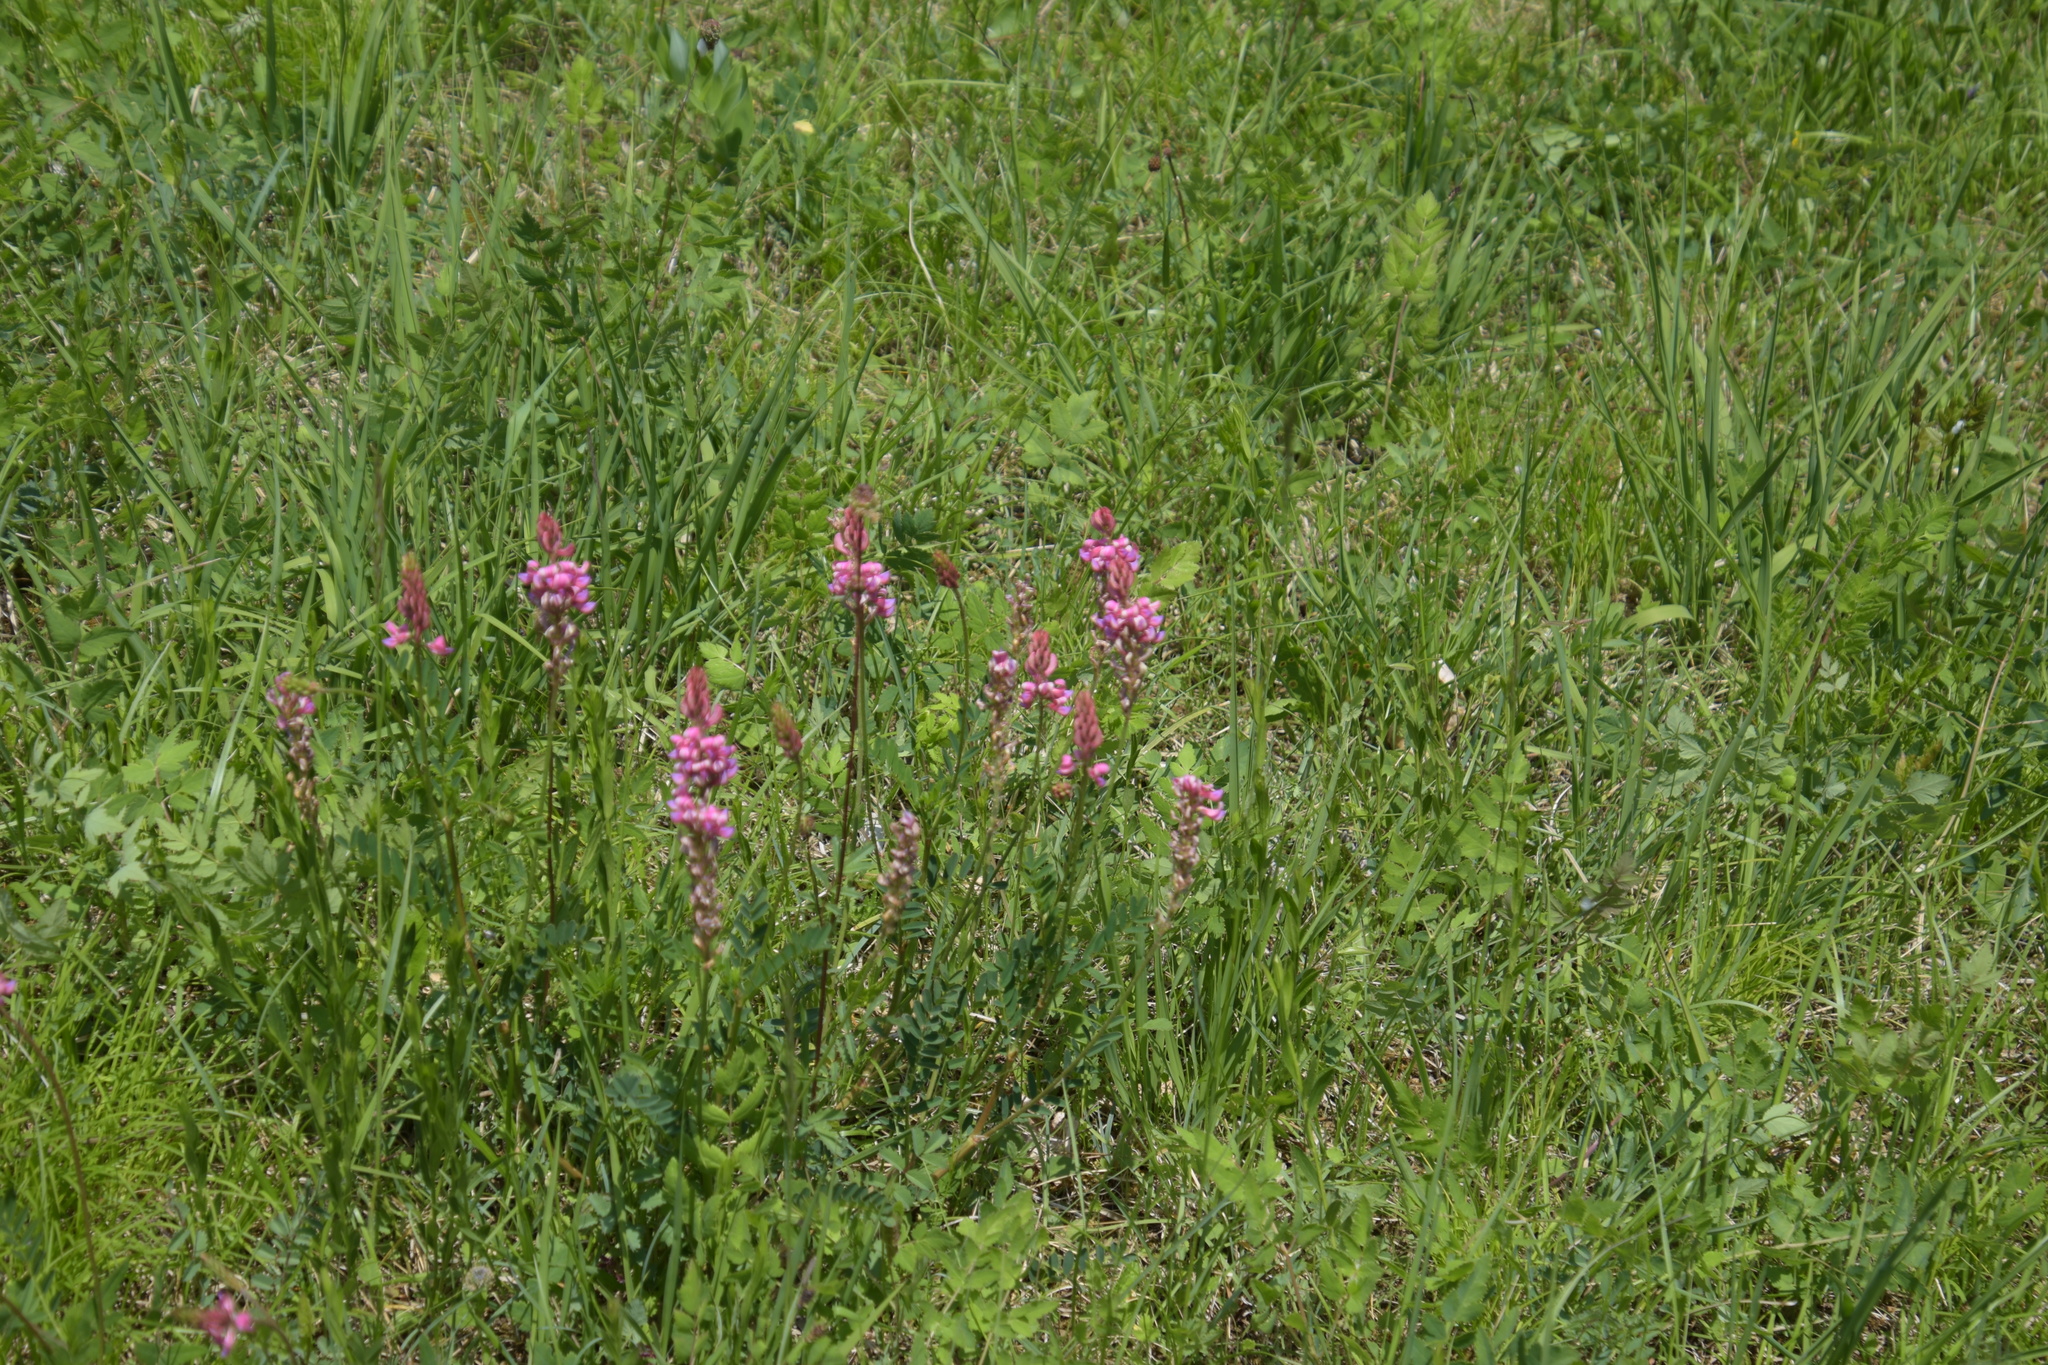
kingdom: Plantae
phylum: Tracheophyta
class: Magnoliopsida
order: Fabales
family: Fabaceae
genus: Onobrychis
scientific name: Onobrychis viciifolia
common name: Sainfoin
